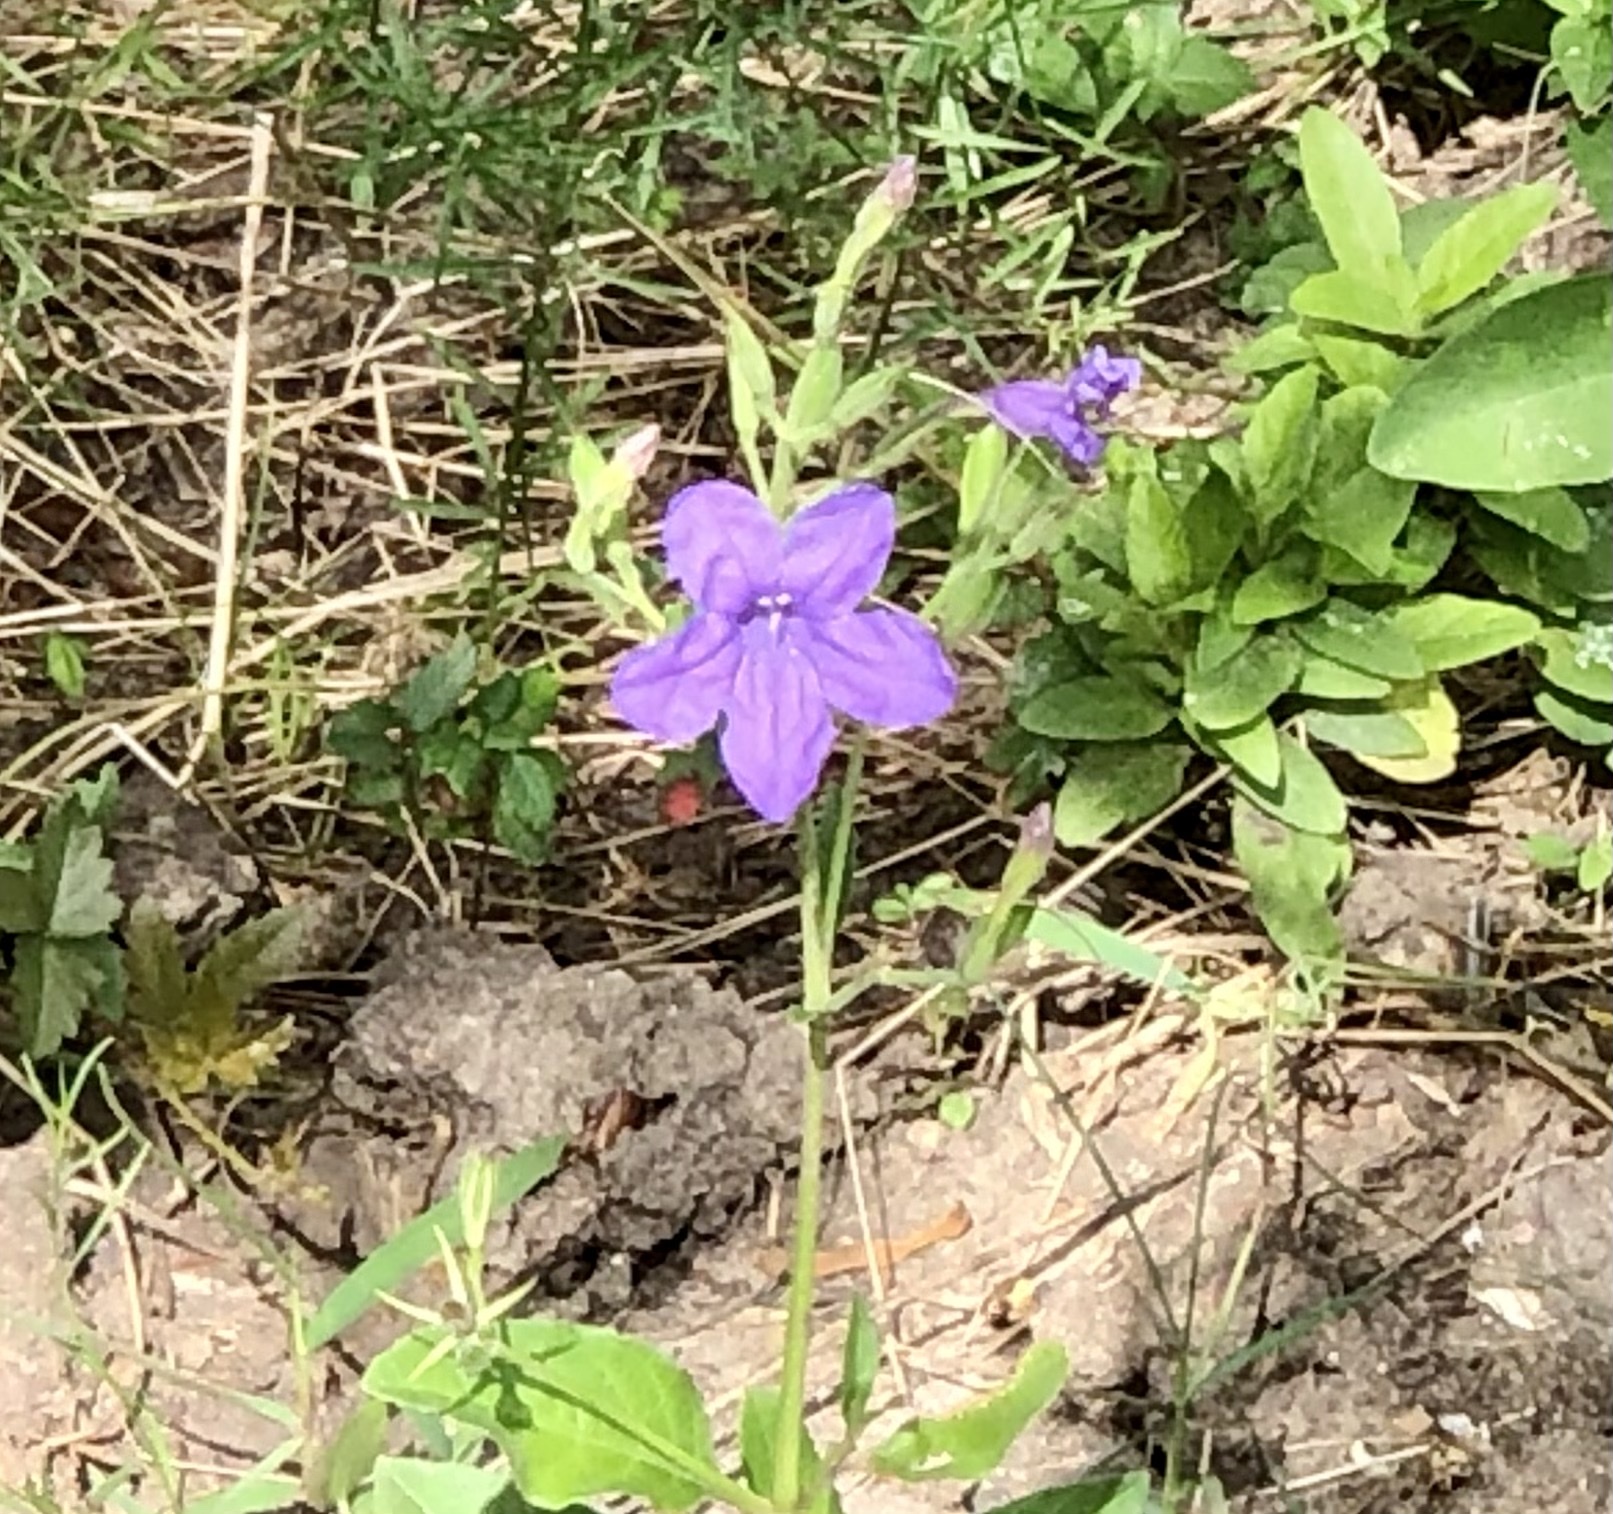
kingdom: Plantae
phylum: Tracheophyta
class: Magnoliopsida
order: Lamiales
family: Acanthaceae
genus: Ruellia
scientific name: Ruellia ciliatiflora
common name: Hairyflower wild petunia
